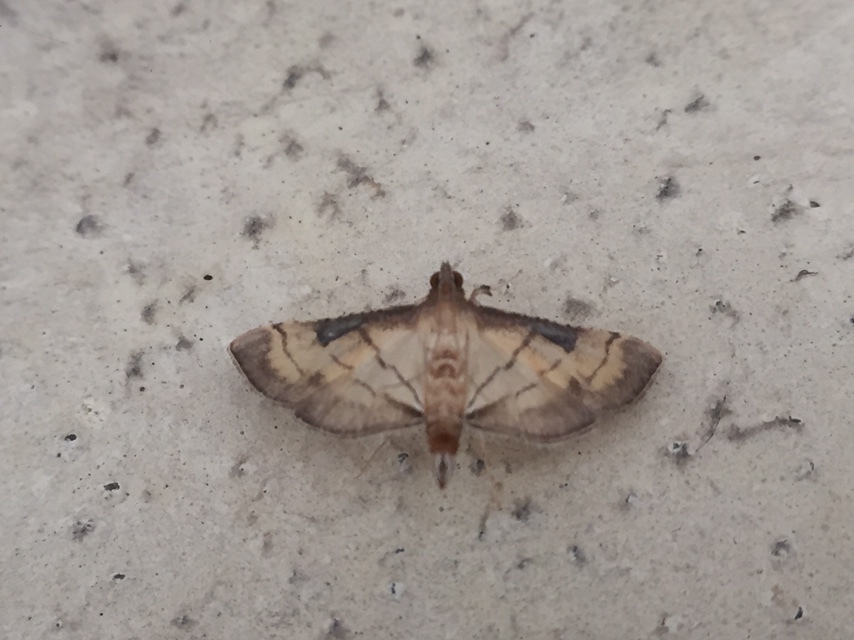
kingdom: Animalia
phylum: Arthropoda
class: Insecta
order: Lepidoptera
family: Crambidae
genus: Cnaphalocrocis
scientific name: Cnaphalocrocis poeyalis
